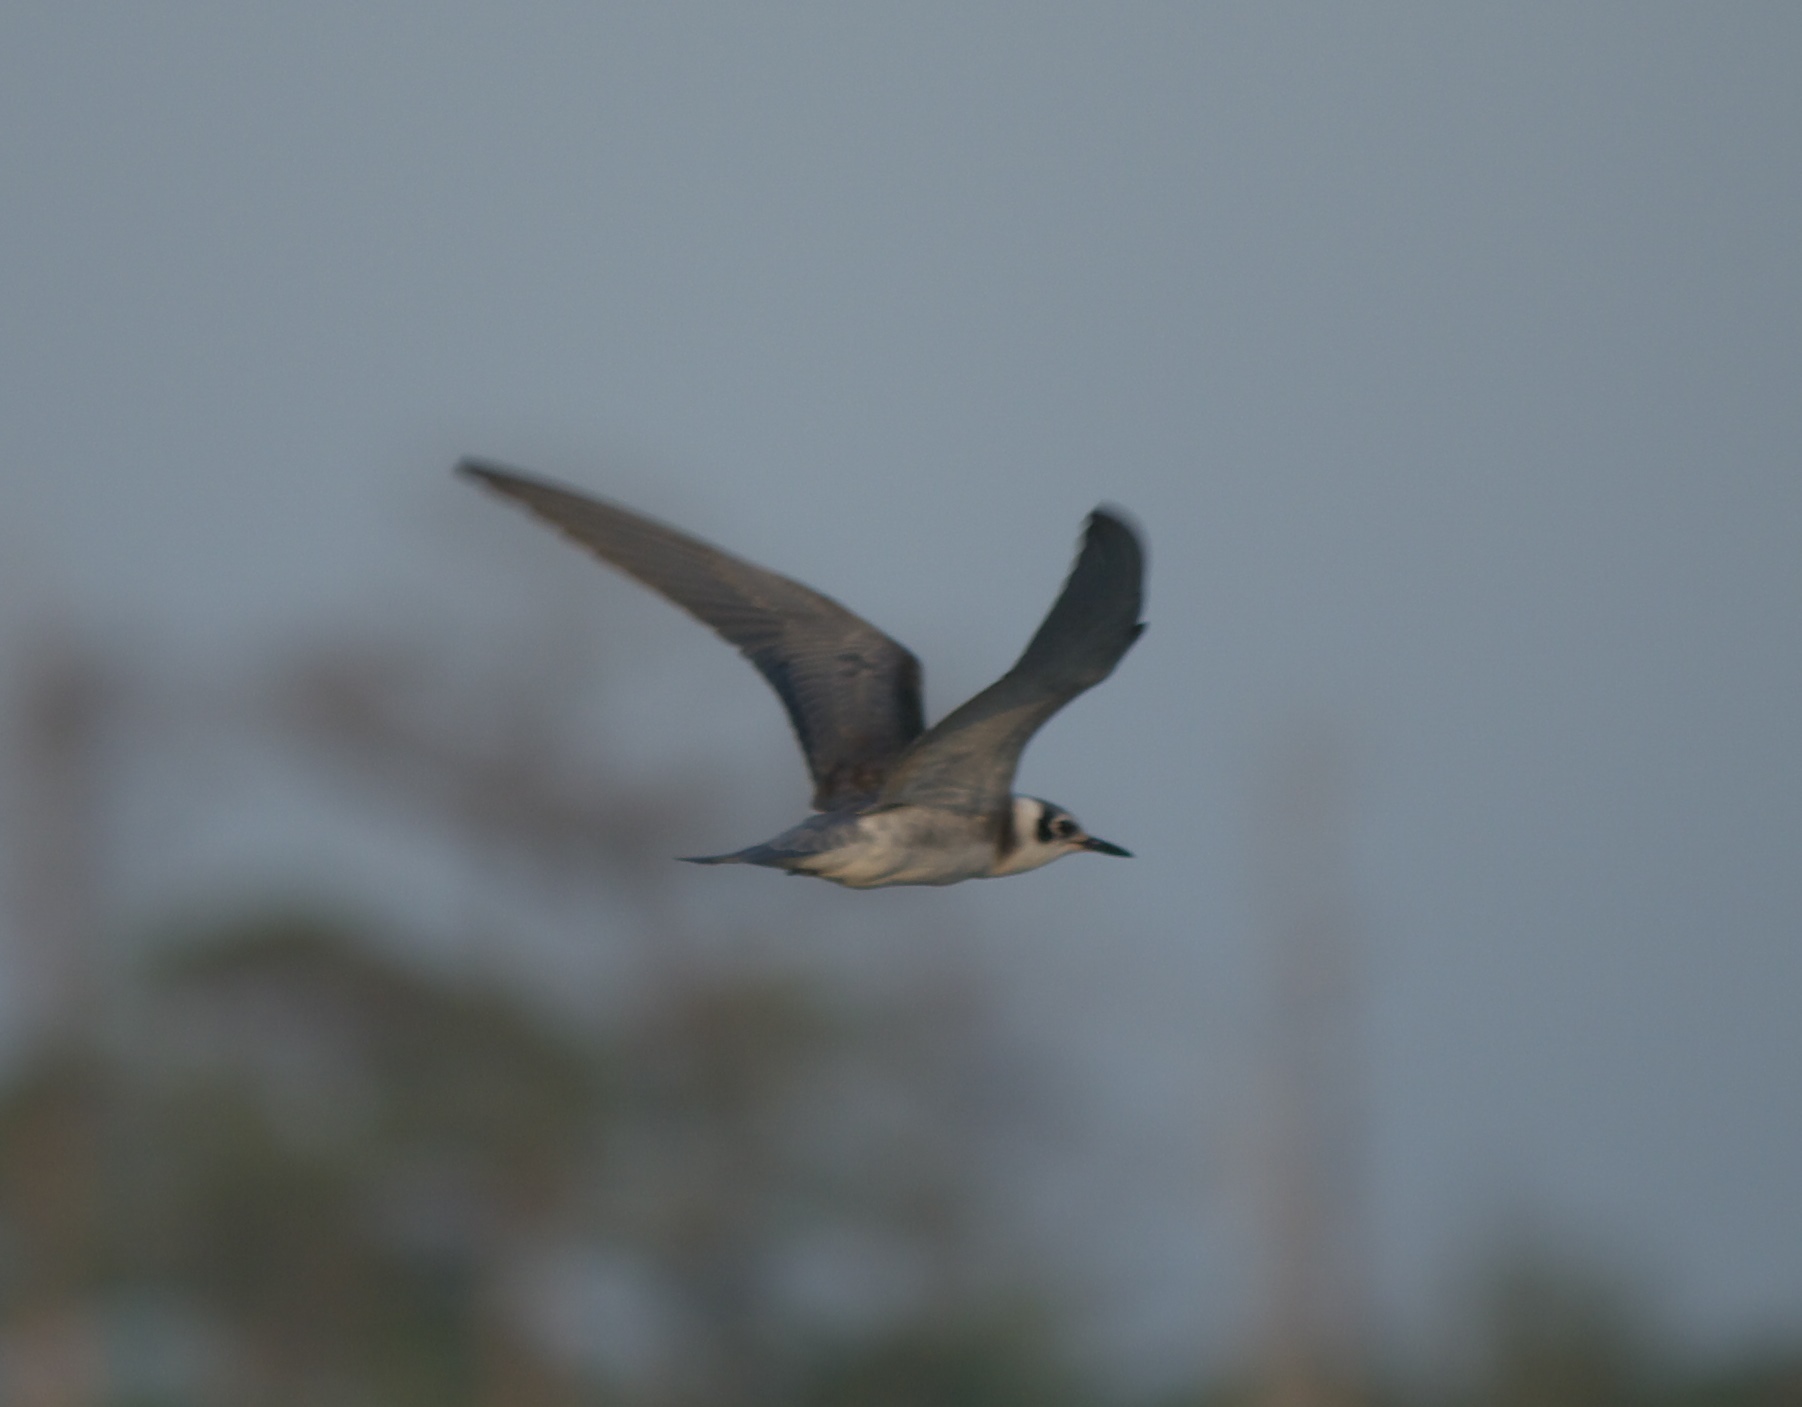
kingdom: Animalia
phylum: Chordata
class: Aves
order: Charadriiformes
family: Laridae
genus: Chlidonias
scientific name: Chlidonias niger
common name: Black tern
